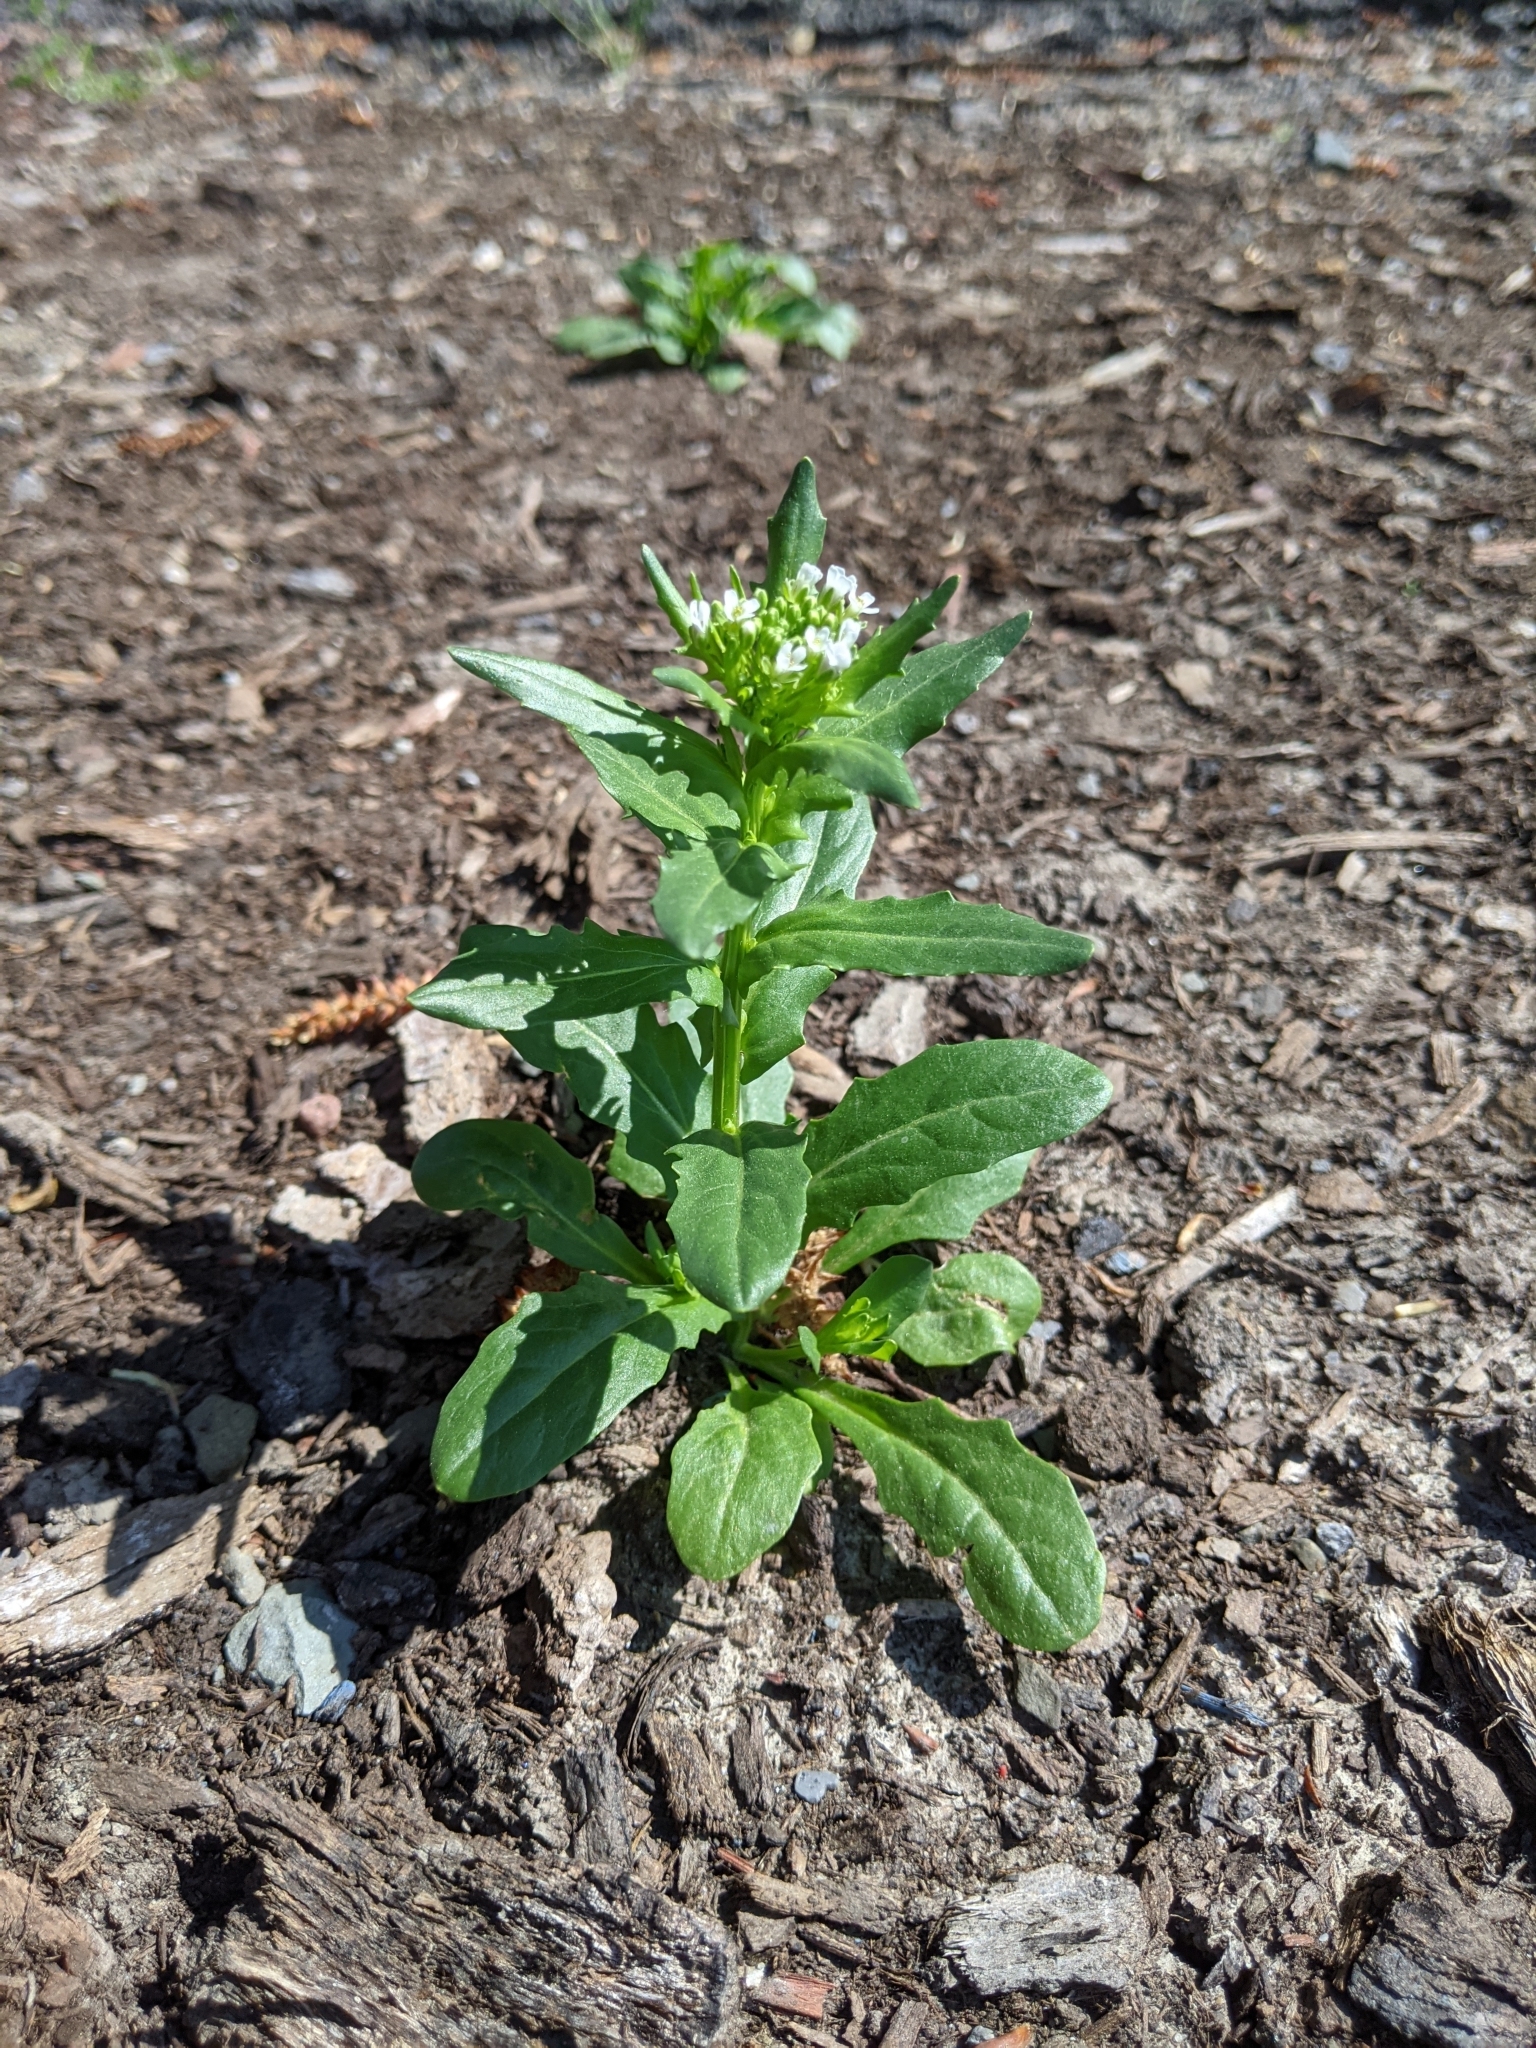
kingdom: Plantae
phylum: Tracheophyta
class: Magnoliopsida
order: Brassicales
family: Brassicaceae
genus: Thlaspi
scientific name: Thlaspi arvense
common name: Field pennycress
